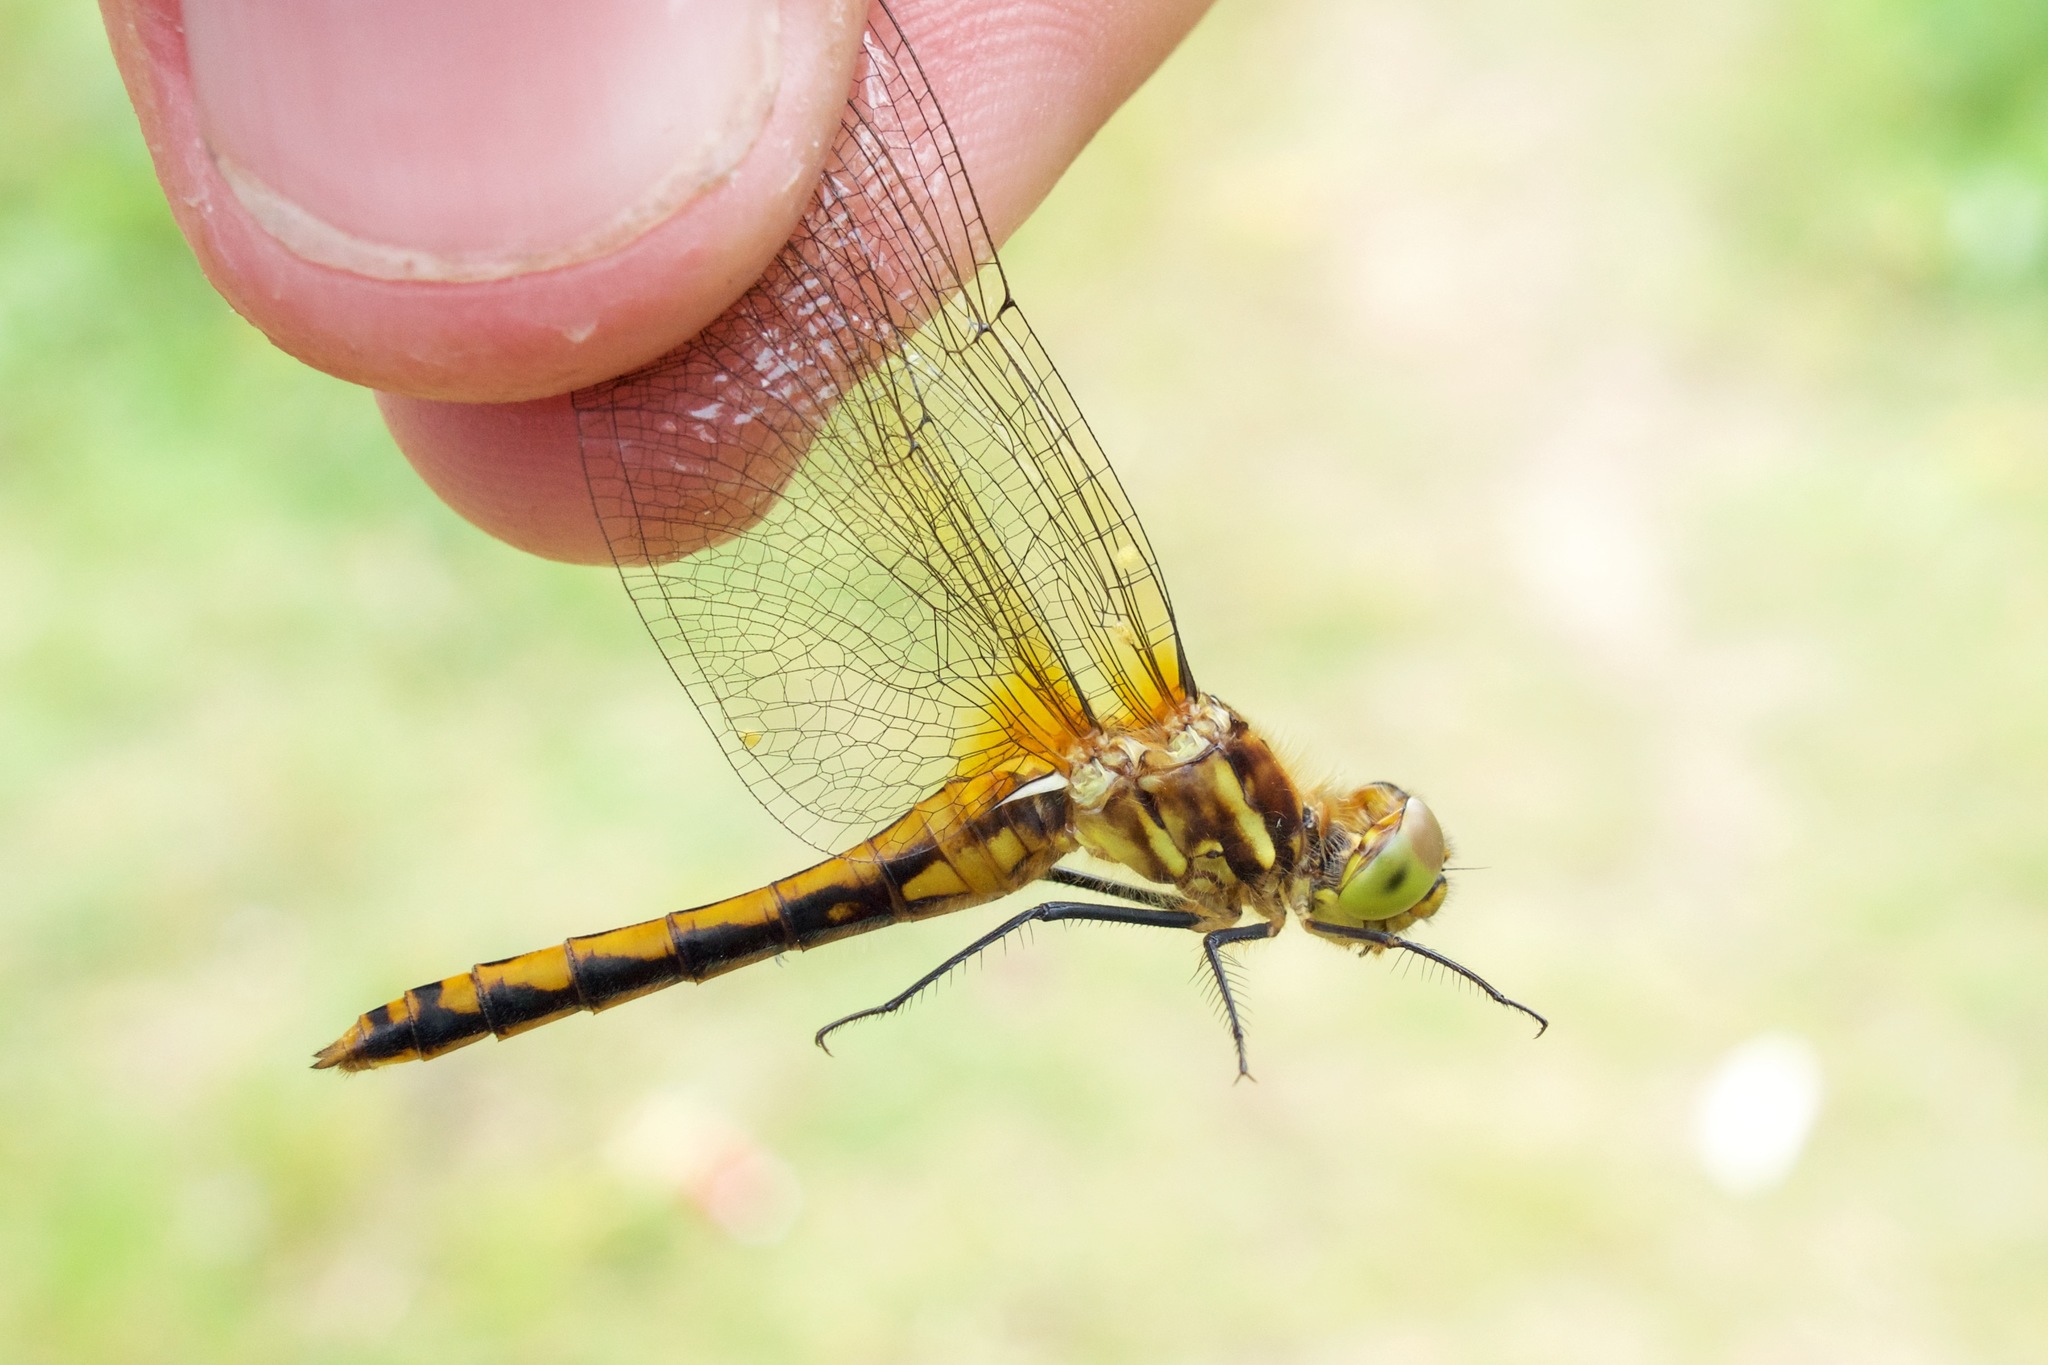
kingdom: Animalia
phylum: Arthropoda
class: Insecta
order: Odonata
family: Libellulidae
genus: Sympetrum
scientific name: Sympetrum internum
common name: Cherry-faced meadowhawk
